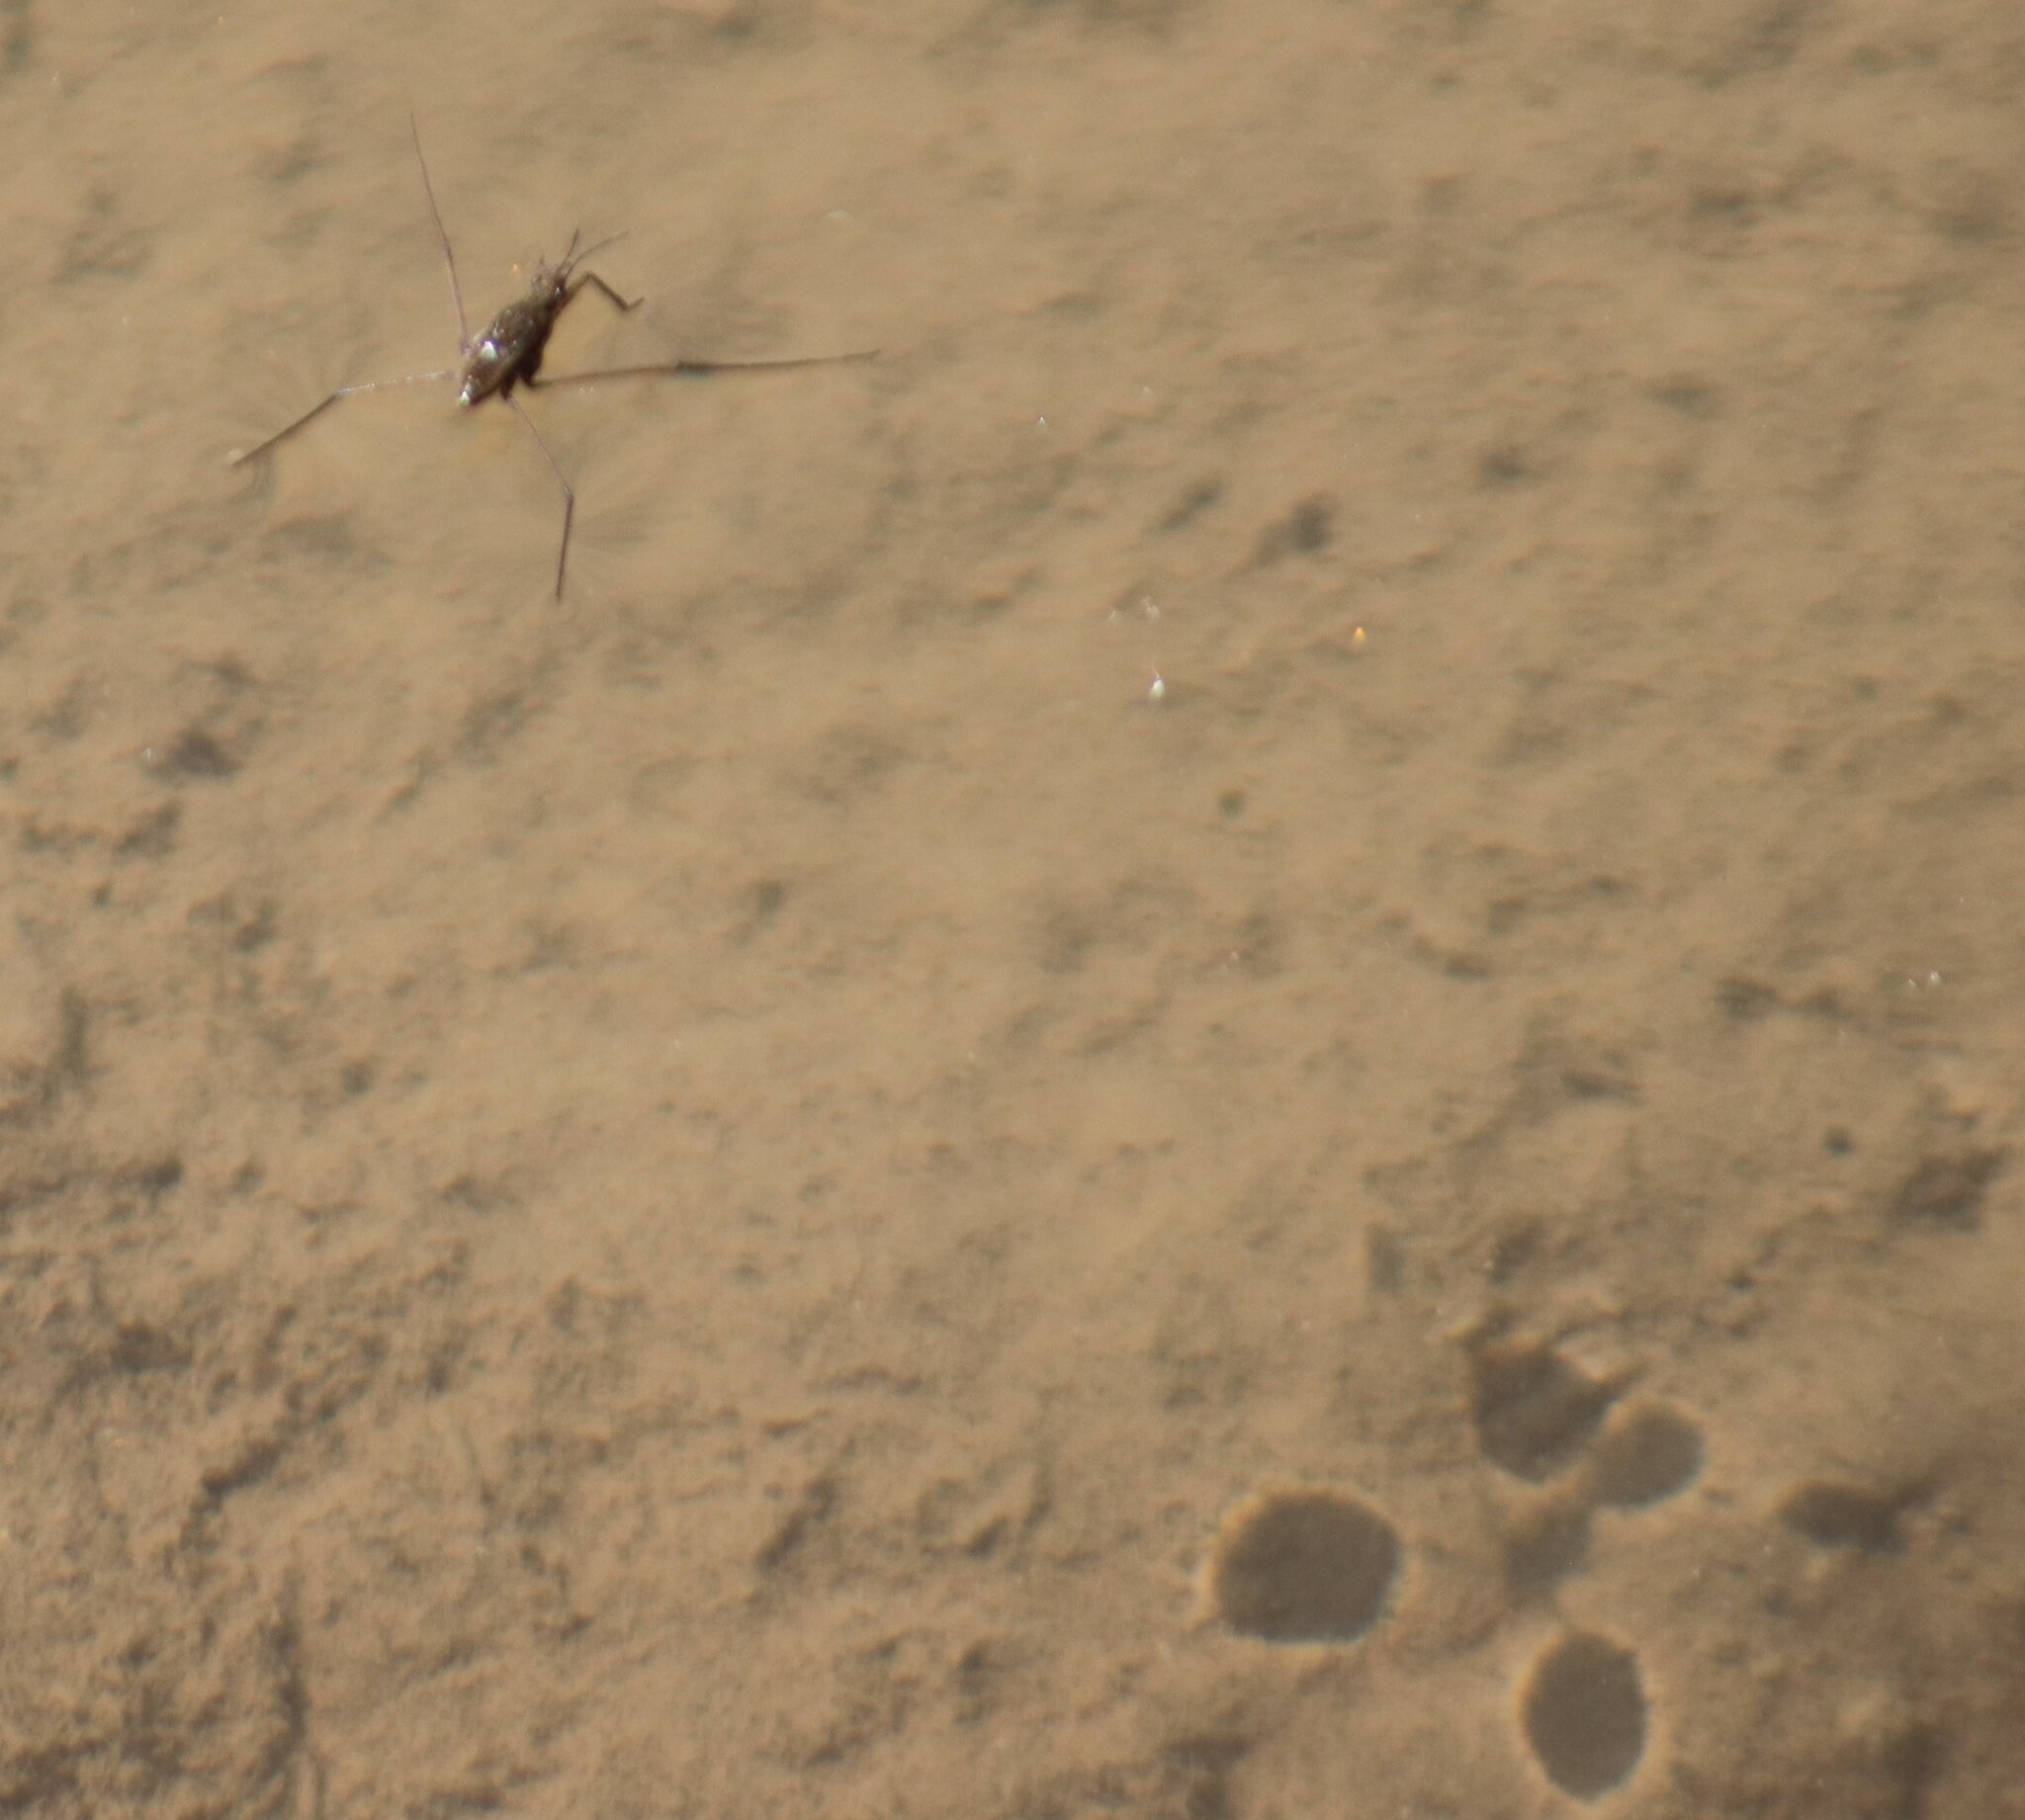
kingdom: Animalia
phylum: Arthropoda
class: Insecta
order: Hemiptera
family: Gerridae
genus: Aquarius
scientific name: Aquarius remigis
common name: Common water strider
